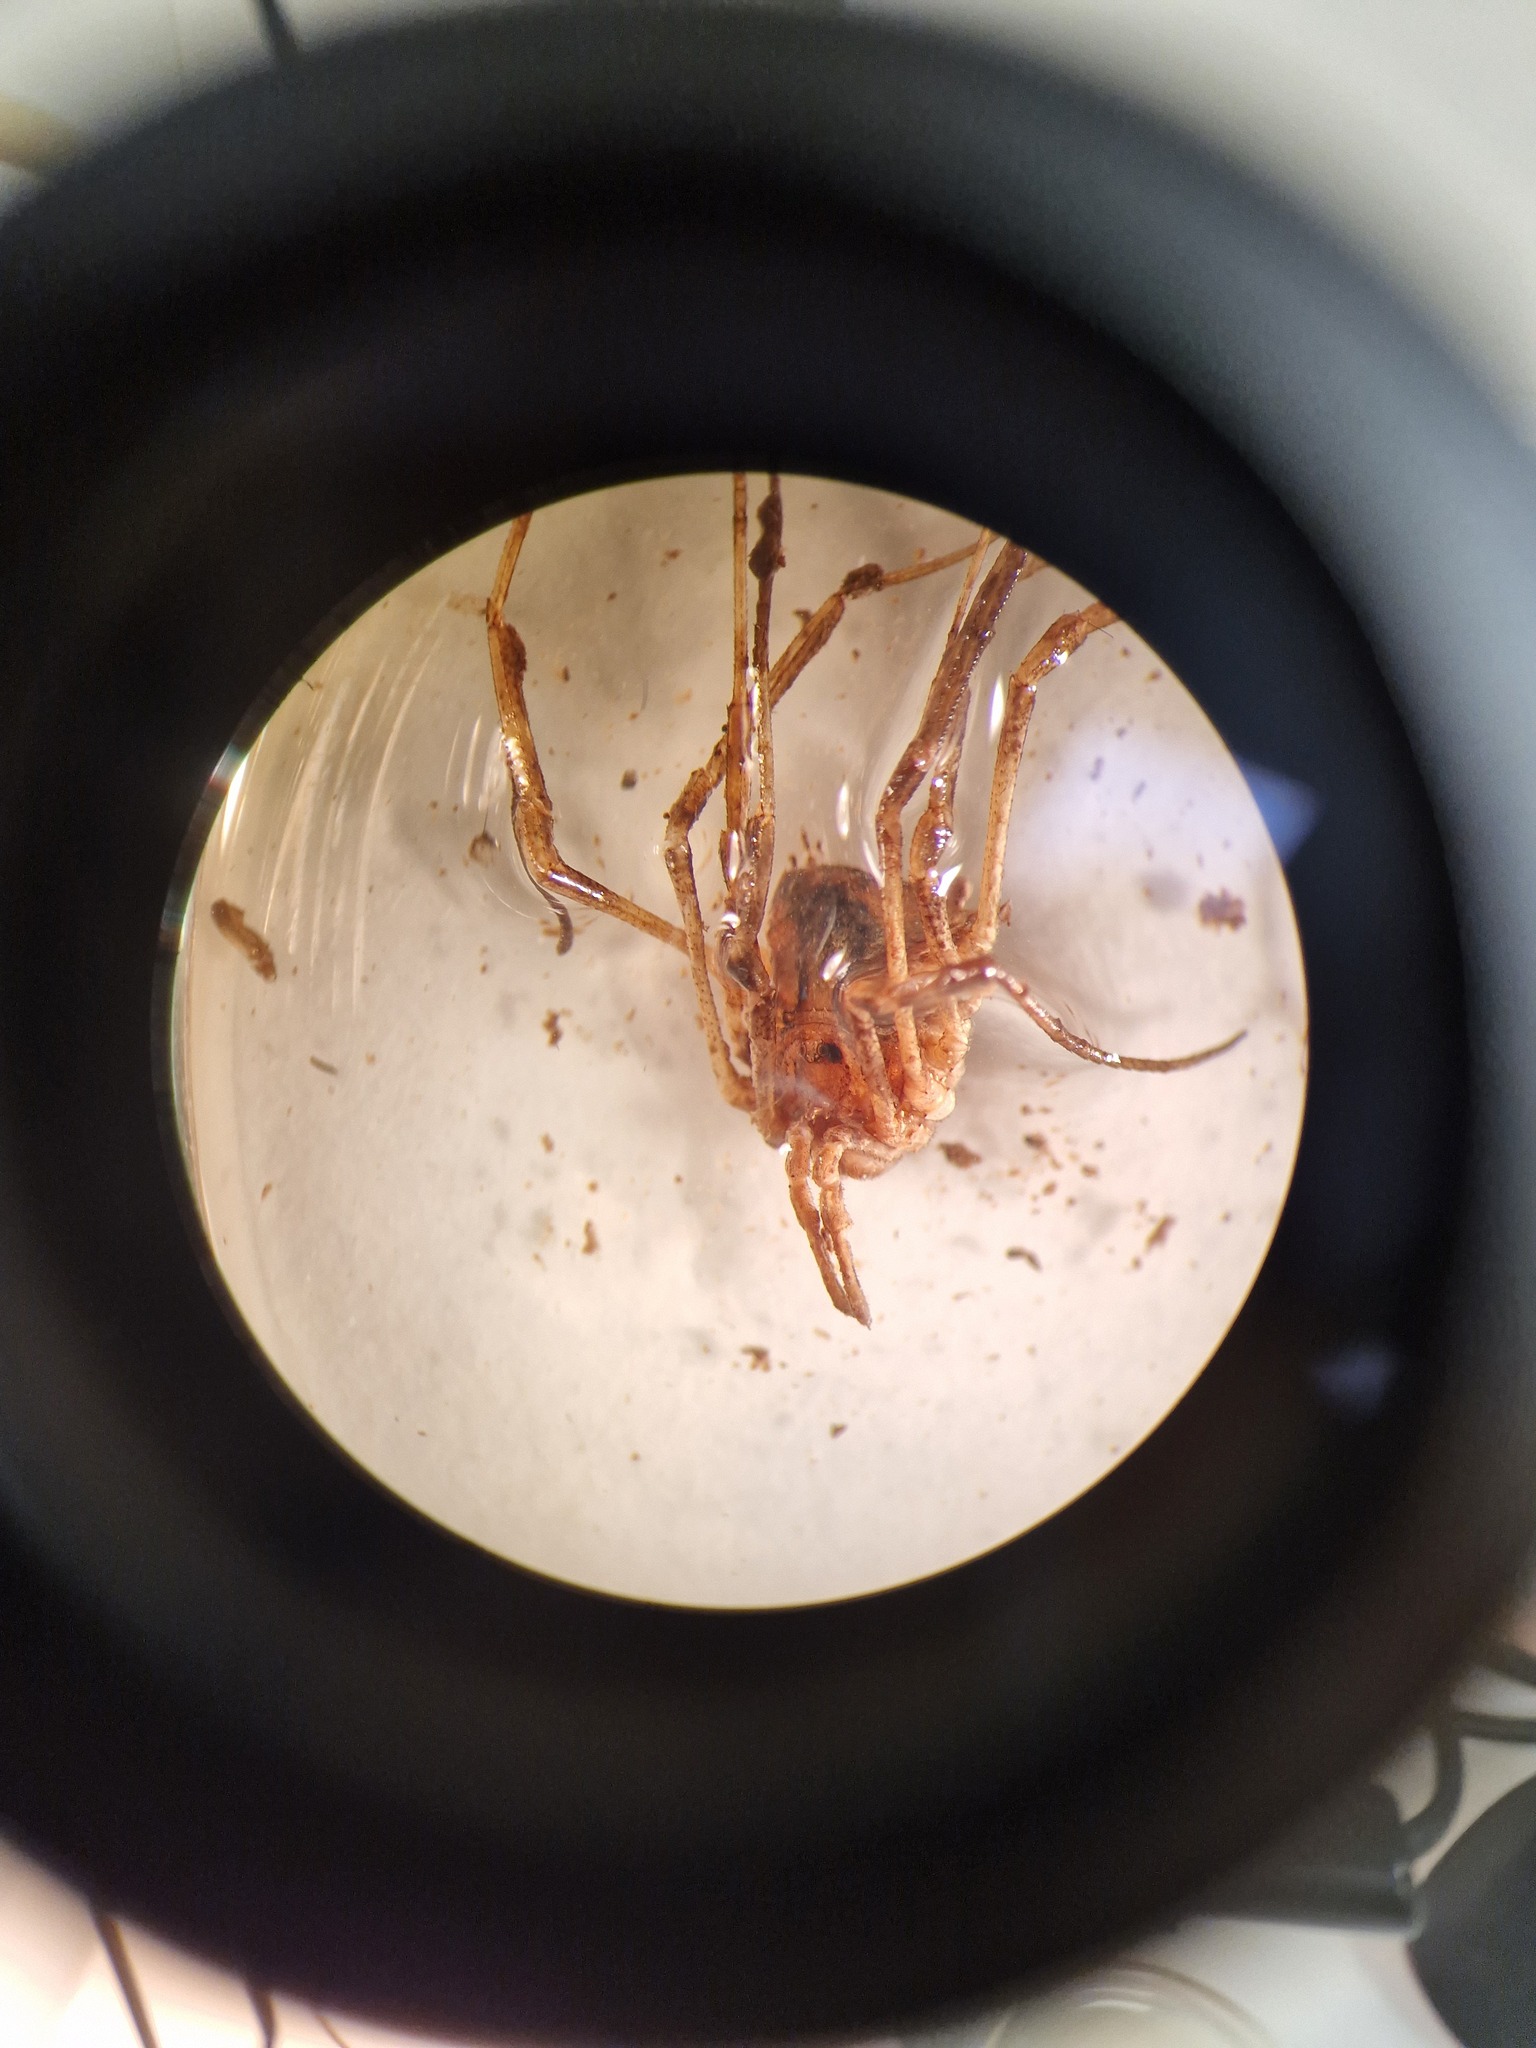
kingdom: Animalia
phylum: Arthropoda
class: Arachnida
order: Opiliones
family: Phalangiidae
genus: Odiellus
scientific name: Odiellus spinosus
